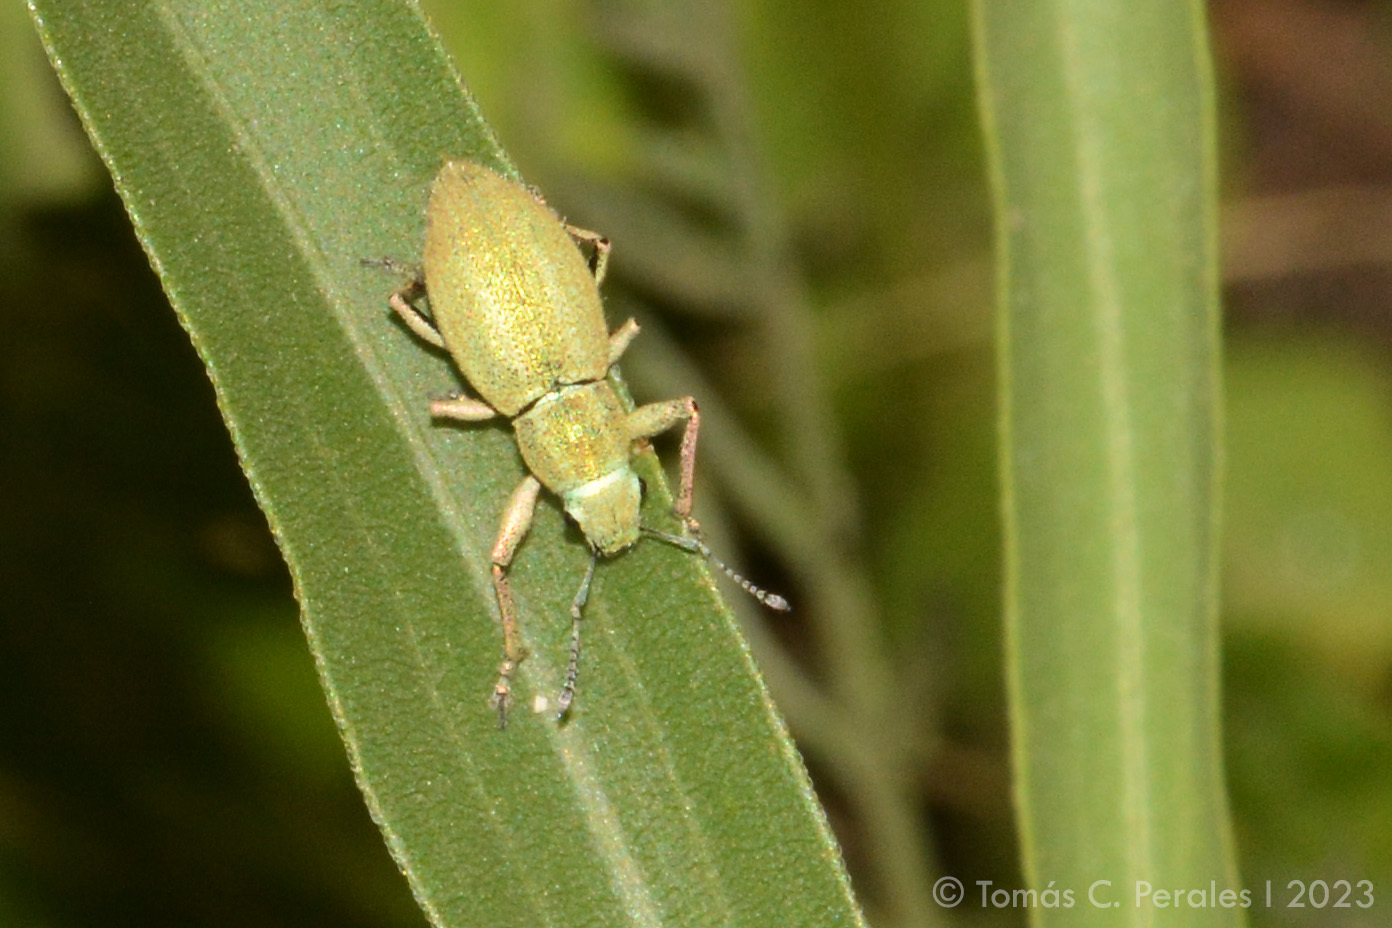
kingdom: Animalia
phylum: Arthropoda
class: Insecta
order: Coleoptera
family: Curculionidae
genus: Naupactus
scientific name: Naupactus auripes
